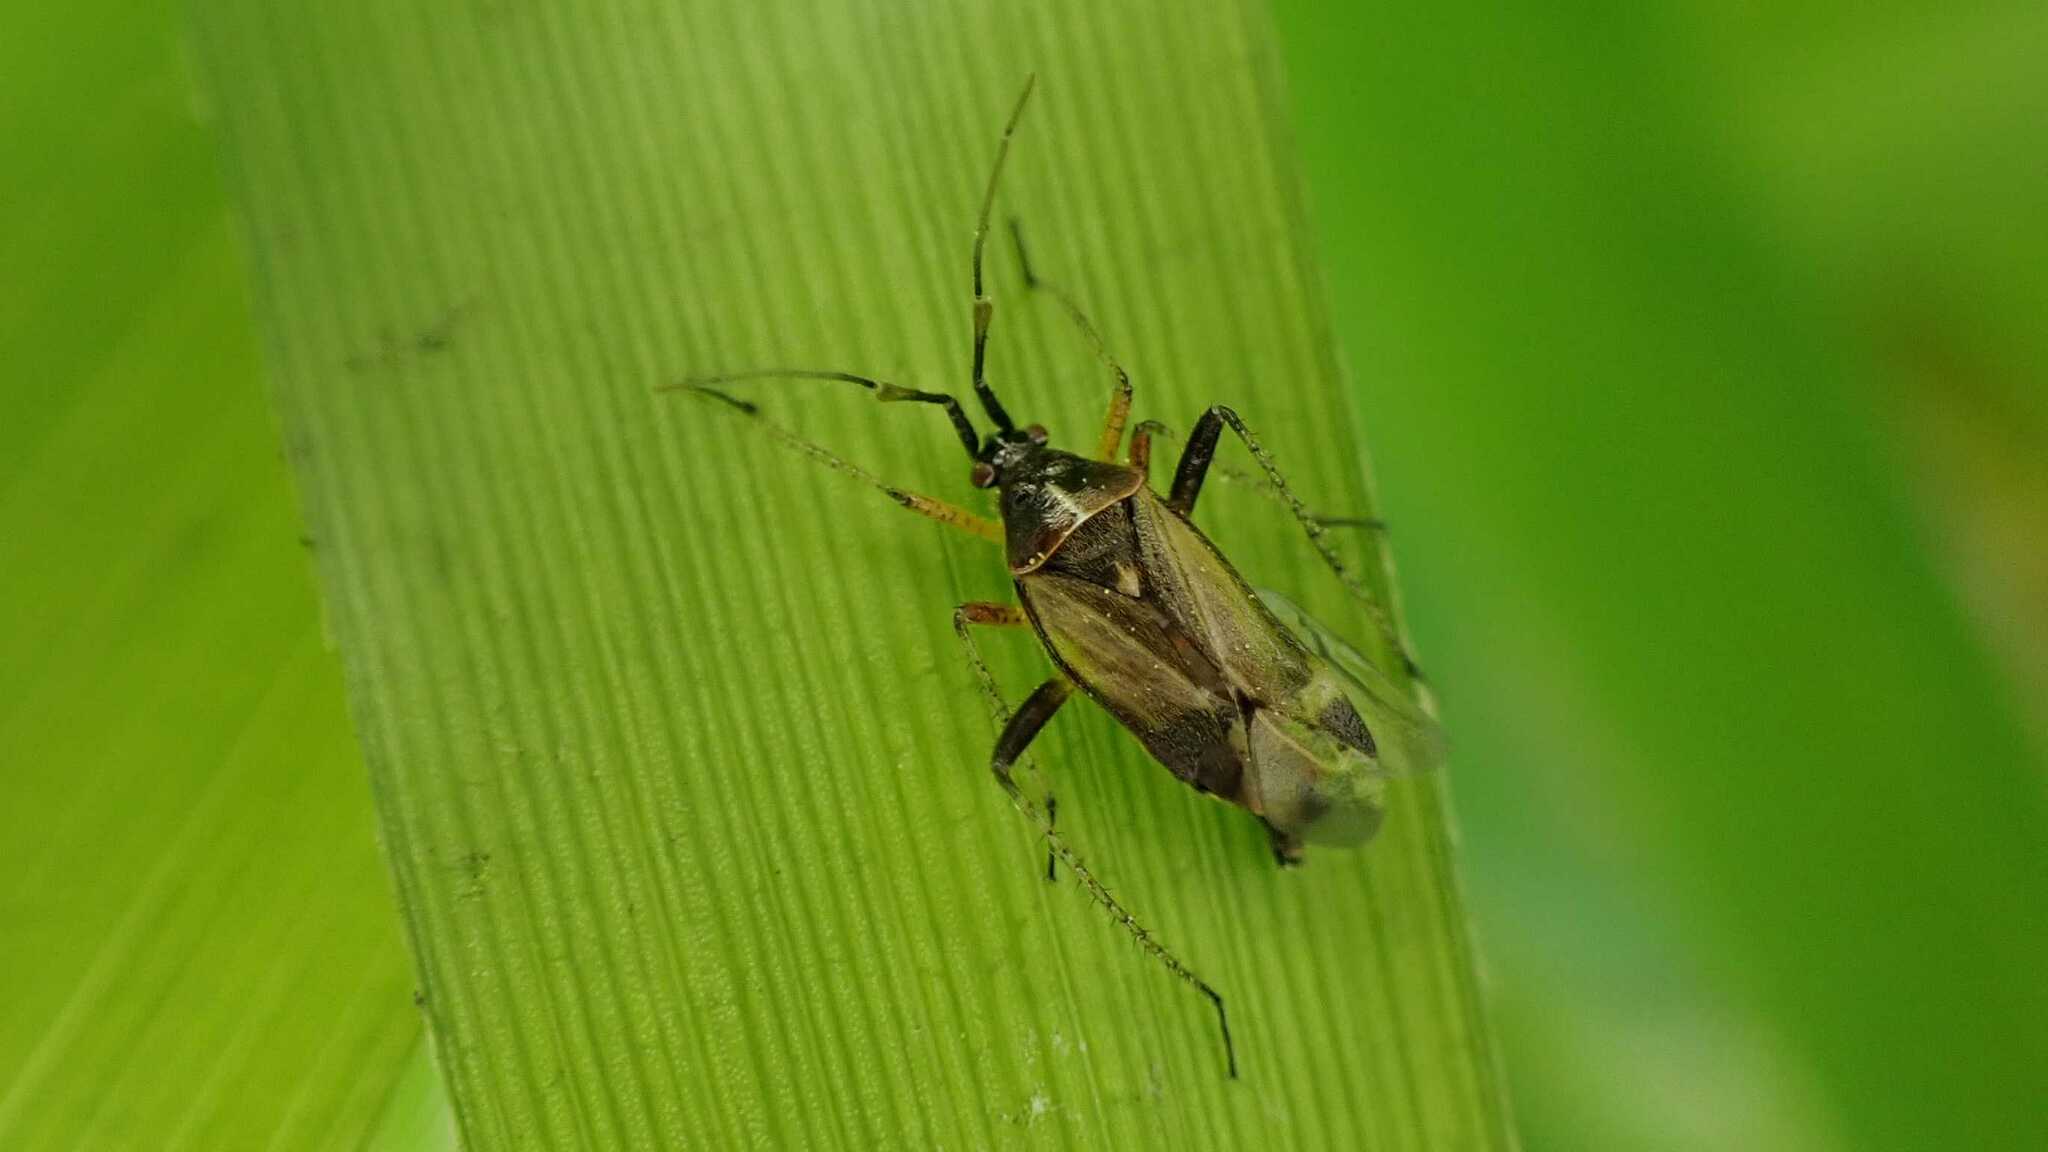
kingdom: Animalia
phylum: Arthropoda
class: Insecta
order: Hemiptera
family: Miridae
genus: Harpocera
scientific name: Harpocera thoracica
